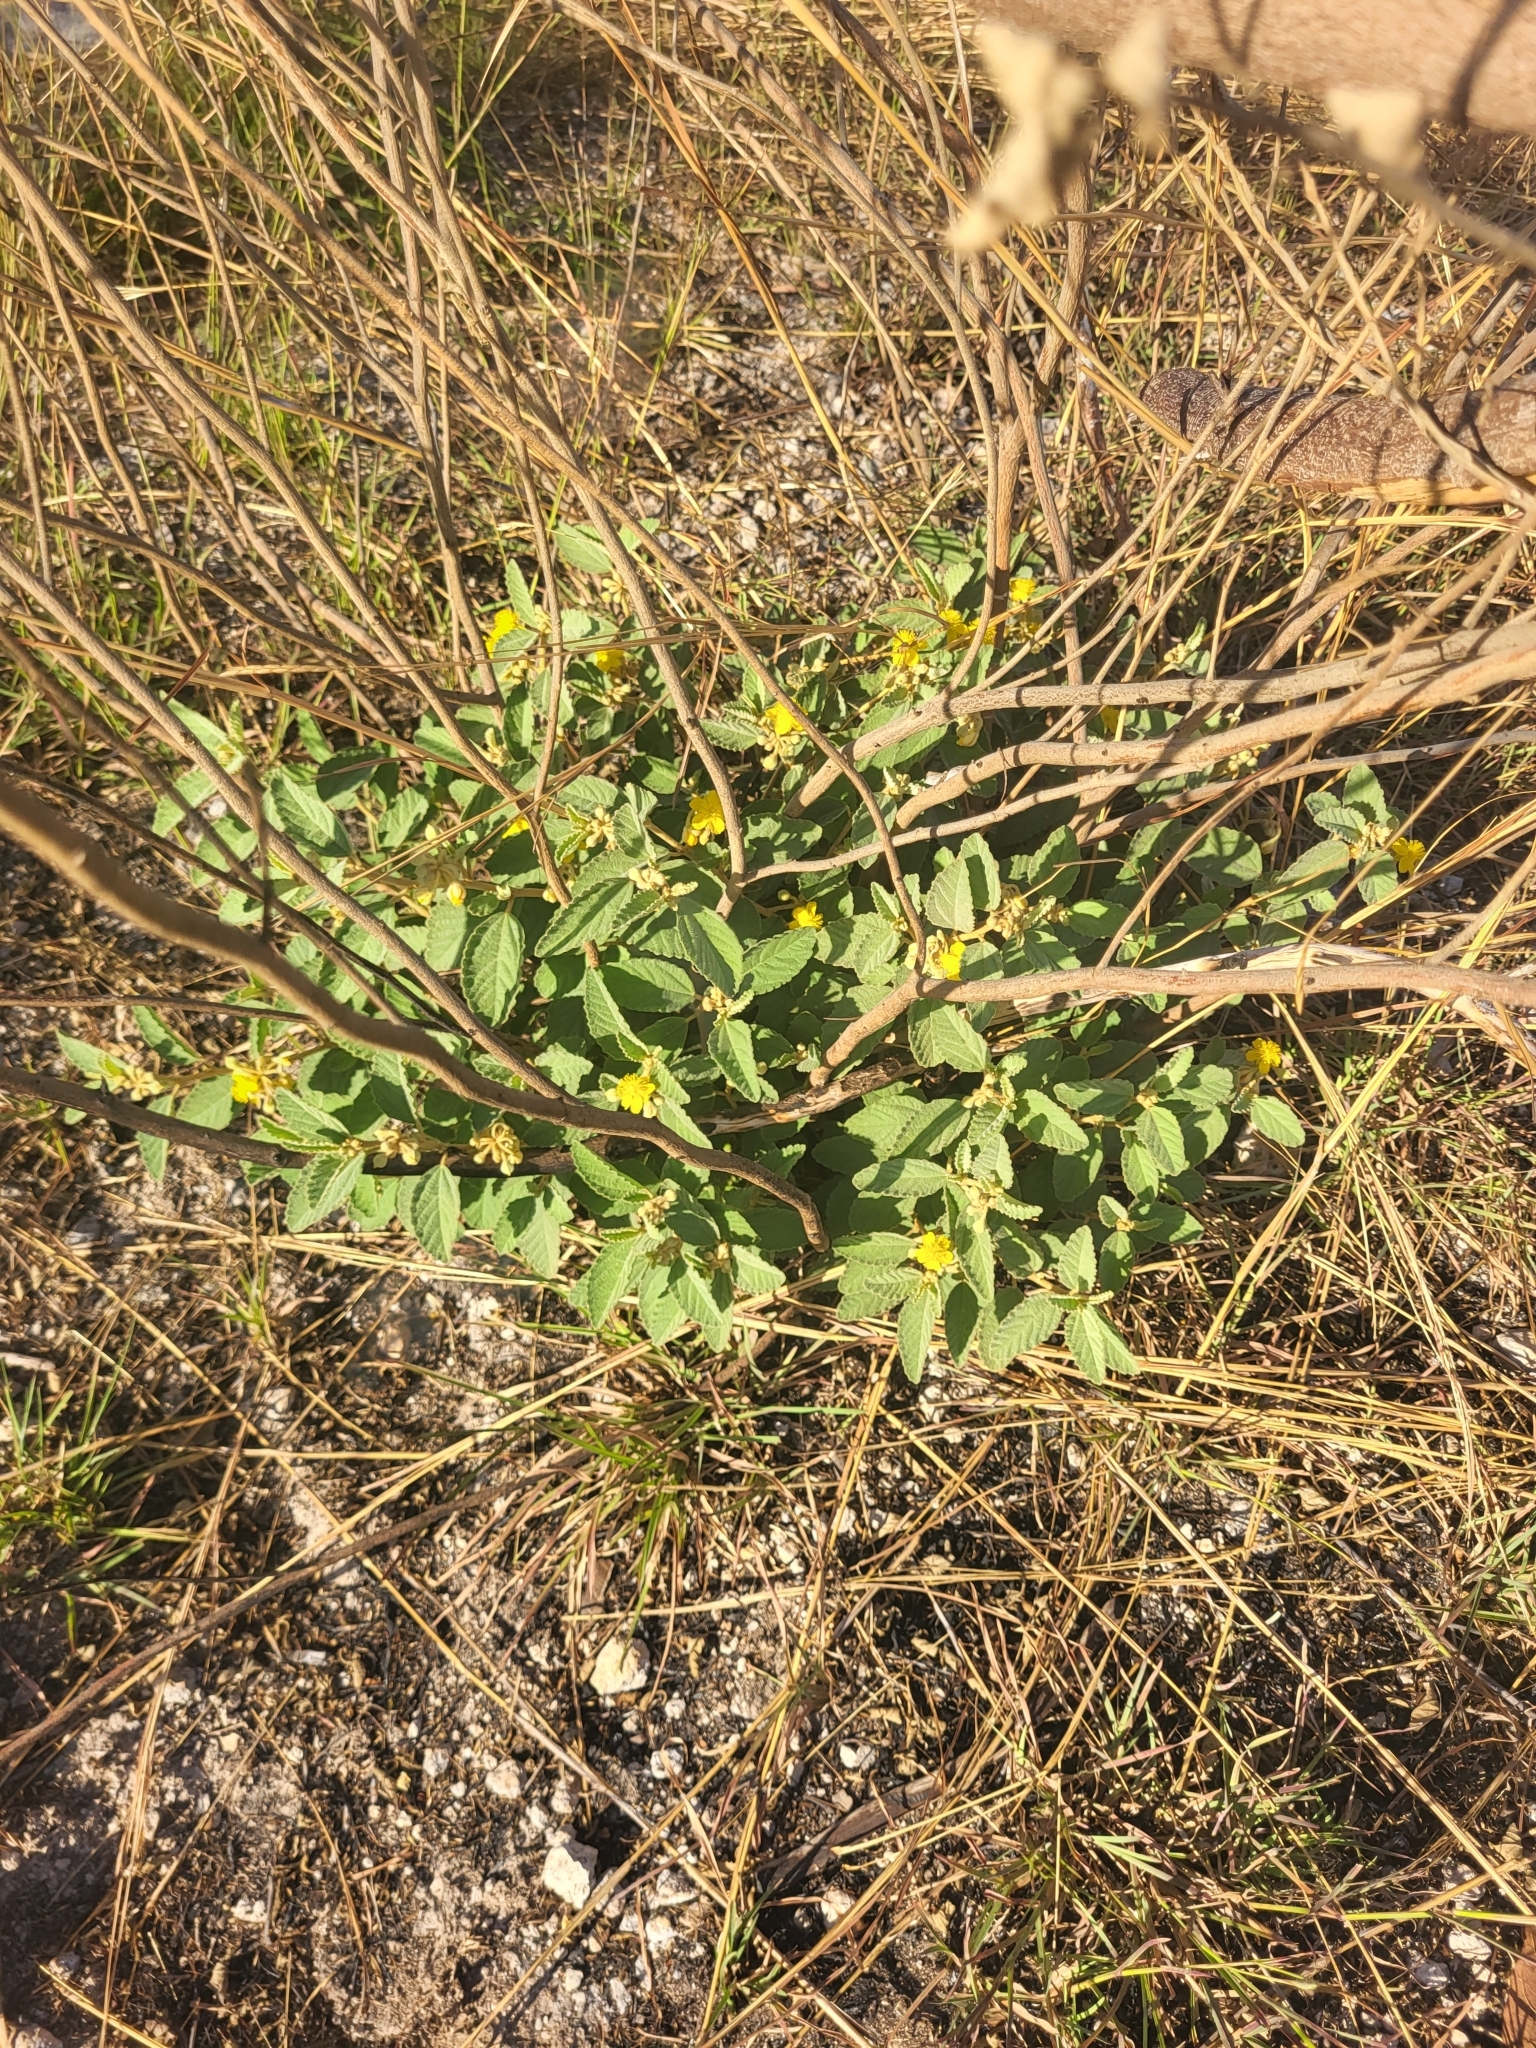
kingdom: Plantae
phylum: Tracheophyta
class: Magnoliopsida
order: Malvales
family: Malvaceae
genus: Corchorus
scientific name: Corchorus hirsutus
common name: Jackswitch
